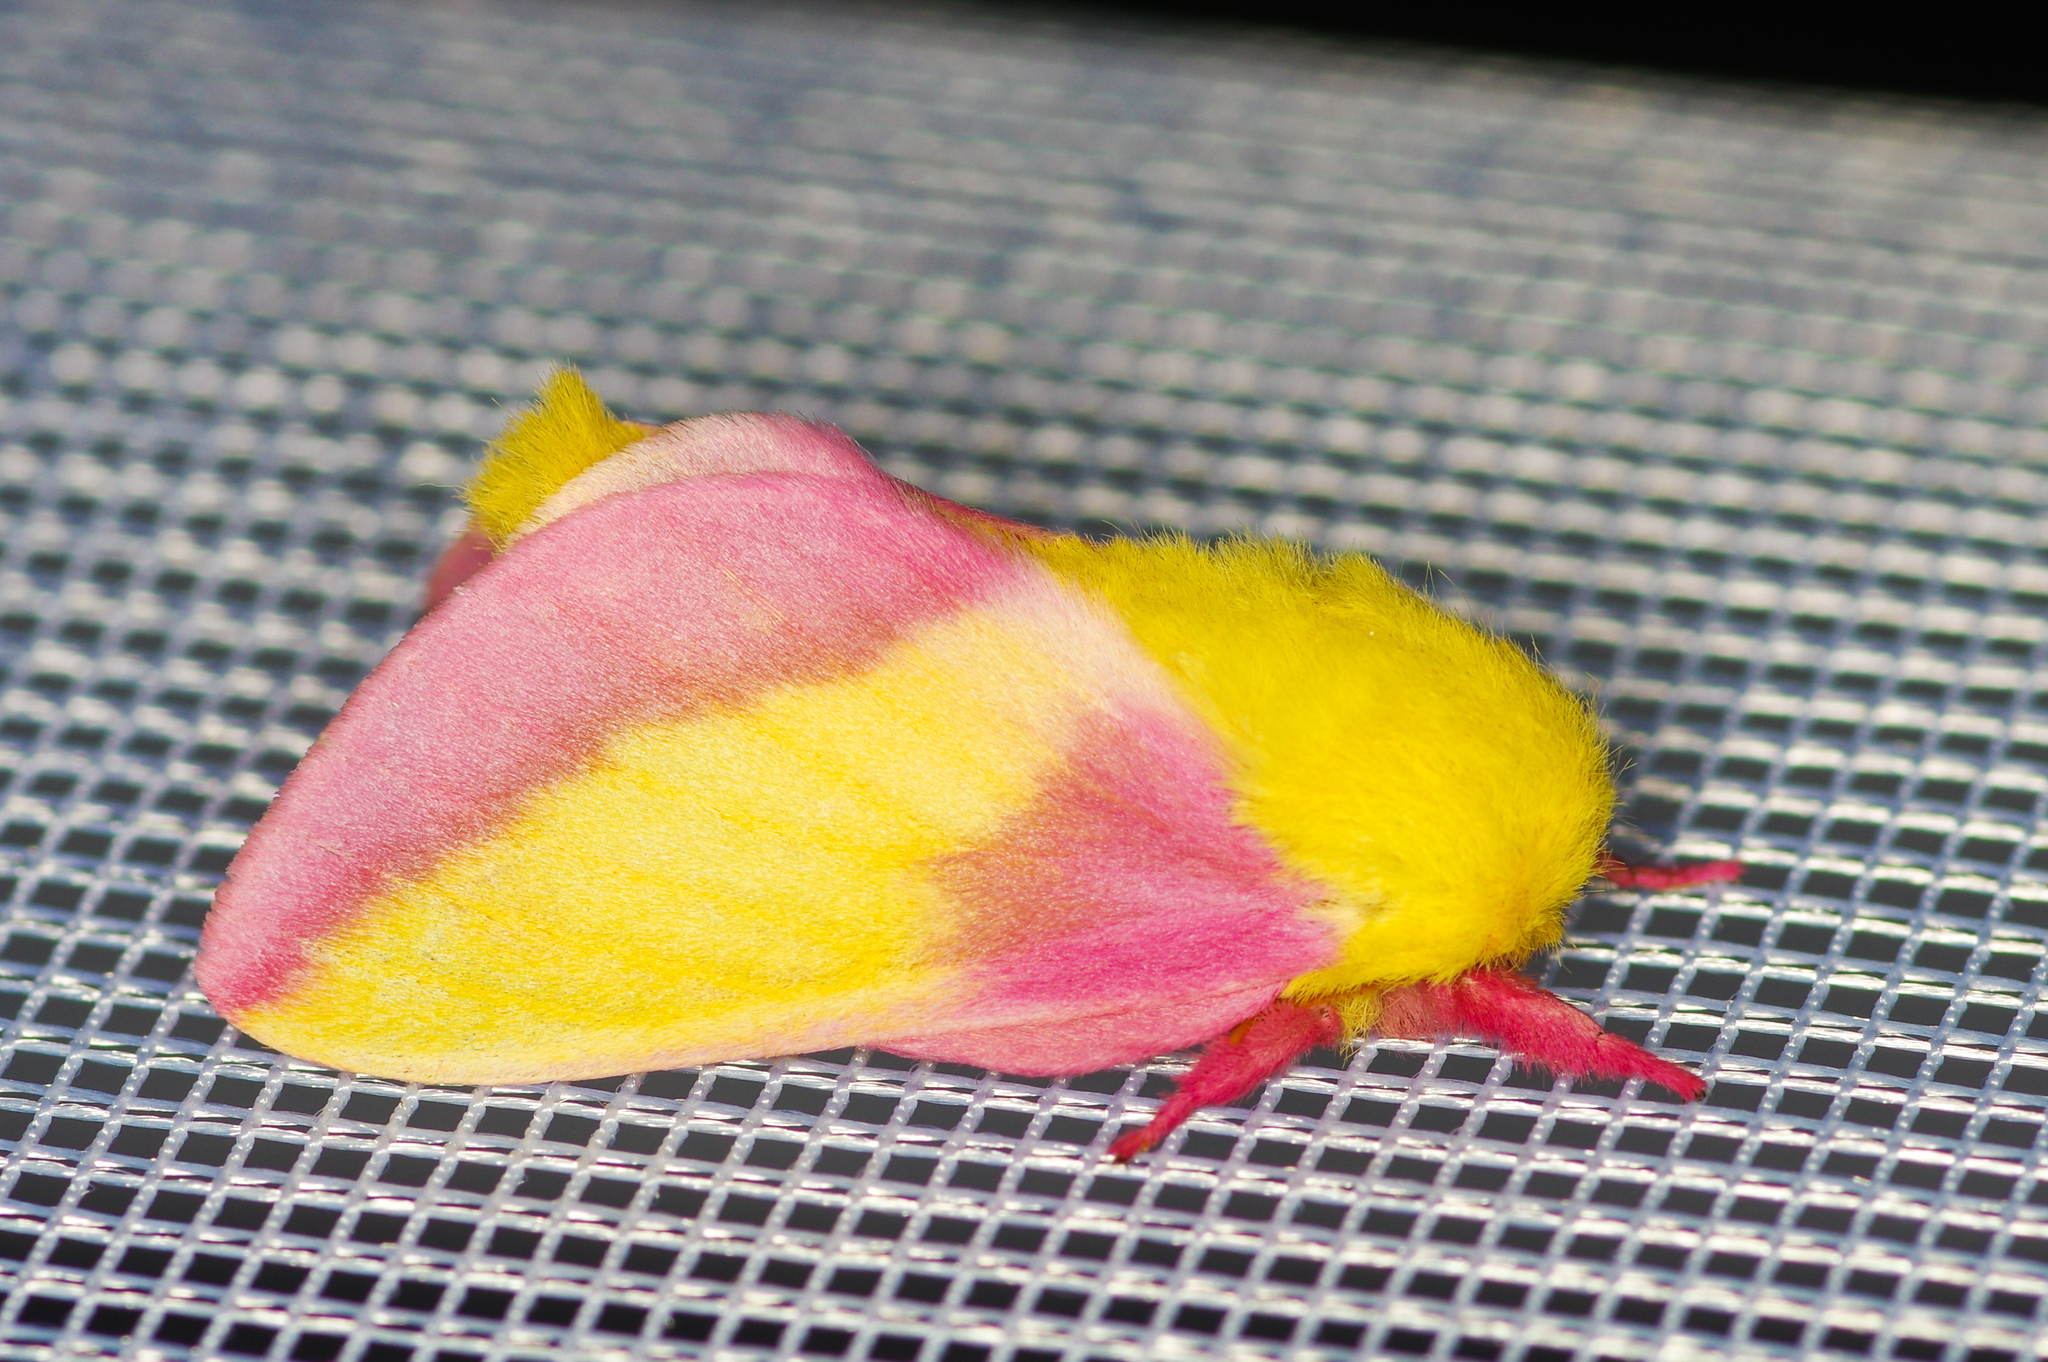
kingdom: Animalia
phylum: Arthropoda
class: Insecta
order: Lepidoptera
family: Saturniidae
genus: Dryocampa
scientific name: Dryocampa rubicunda
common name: Rosy maple moth
